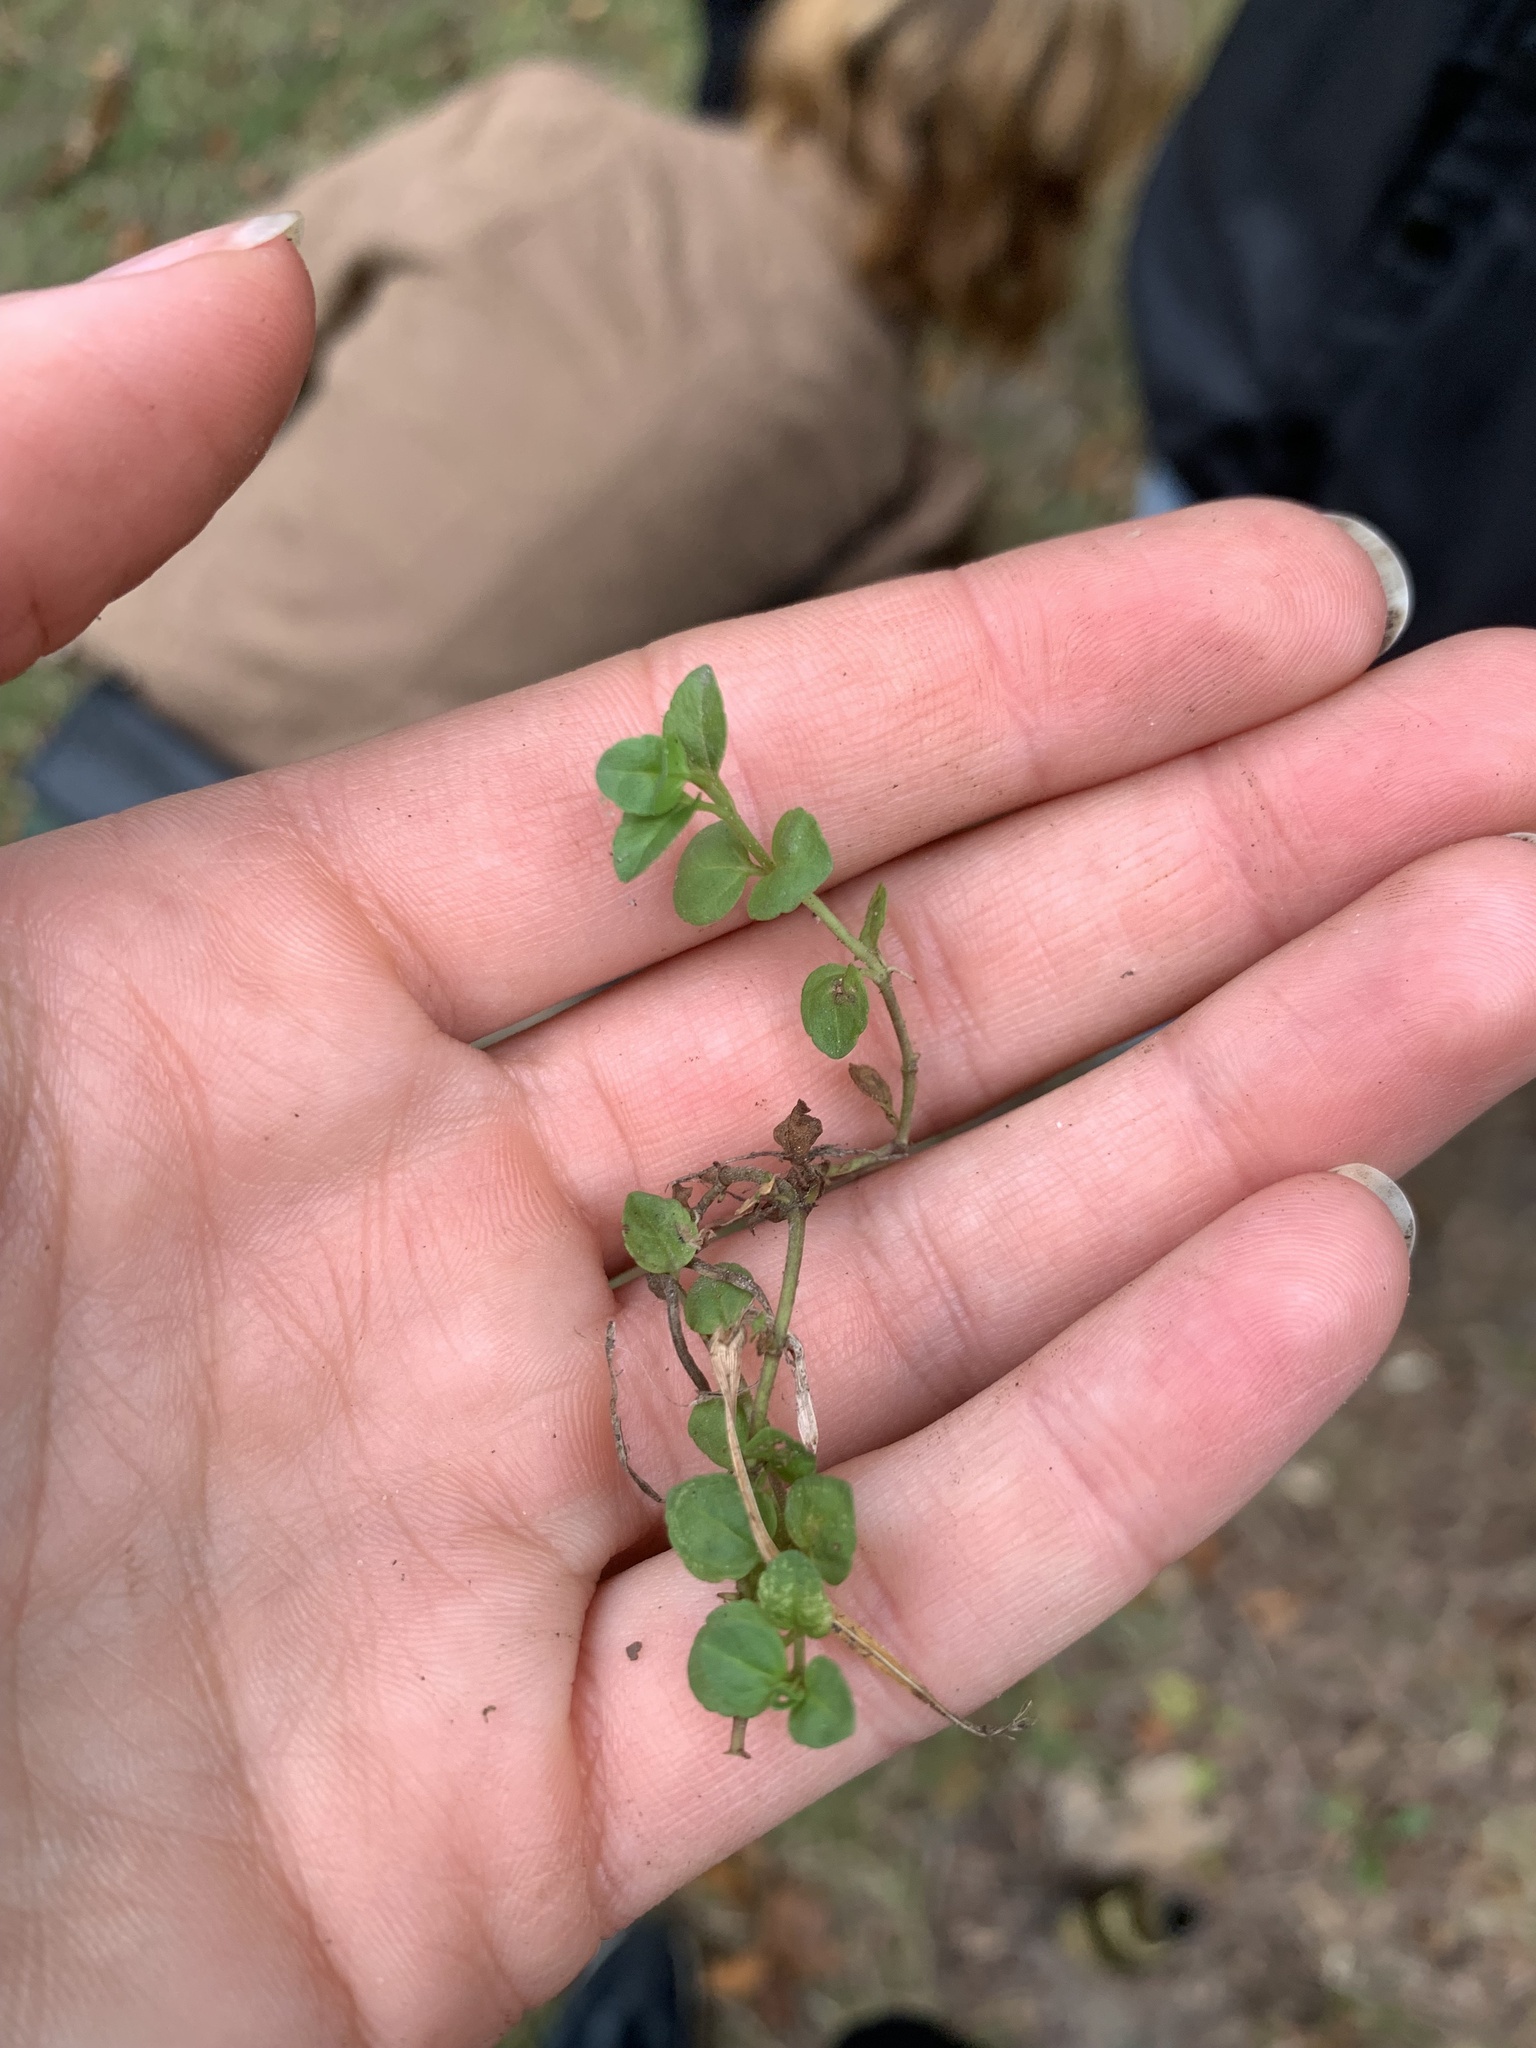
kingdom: Plantae
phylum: Tracheophyta
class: Magnoliopsida
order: Lamiales
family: Plantaginaceae
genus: Veronica
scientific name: Veronica serpyllifolia
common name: Thyme-leaved speedwell
